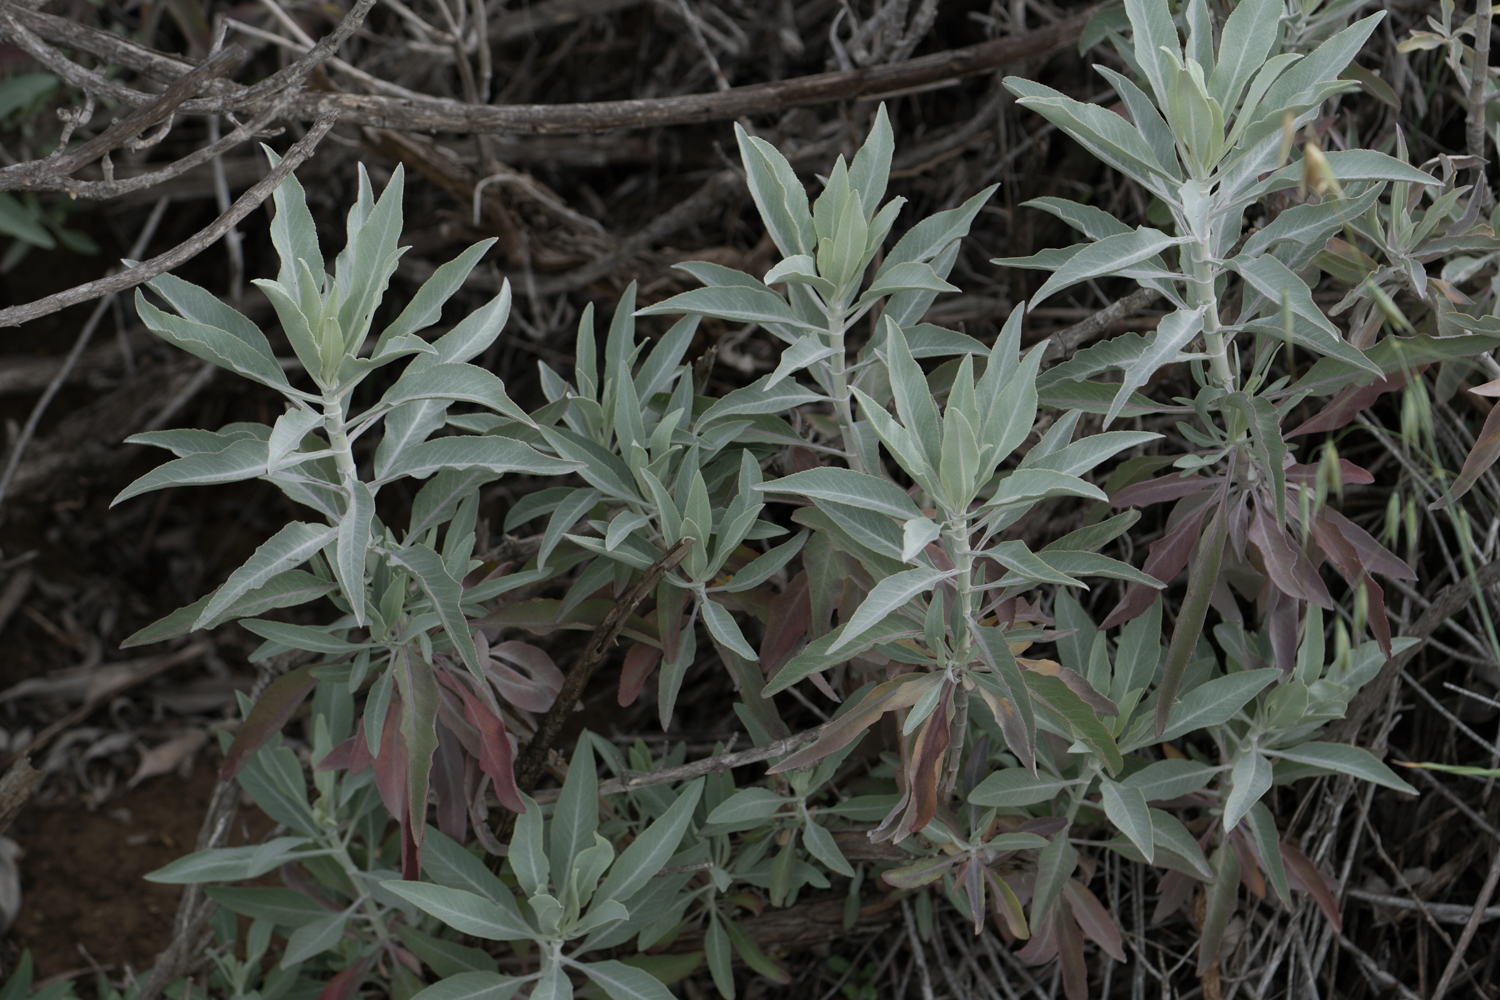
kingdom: Plantae
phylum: Tracheophyta
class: Magnoliopsida
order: Lamiales
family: Lamiaceae
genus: Salvia
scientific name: Salvia apiana
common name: White sage
